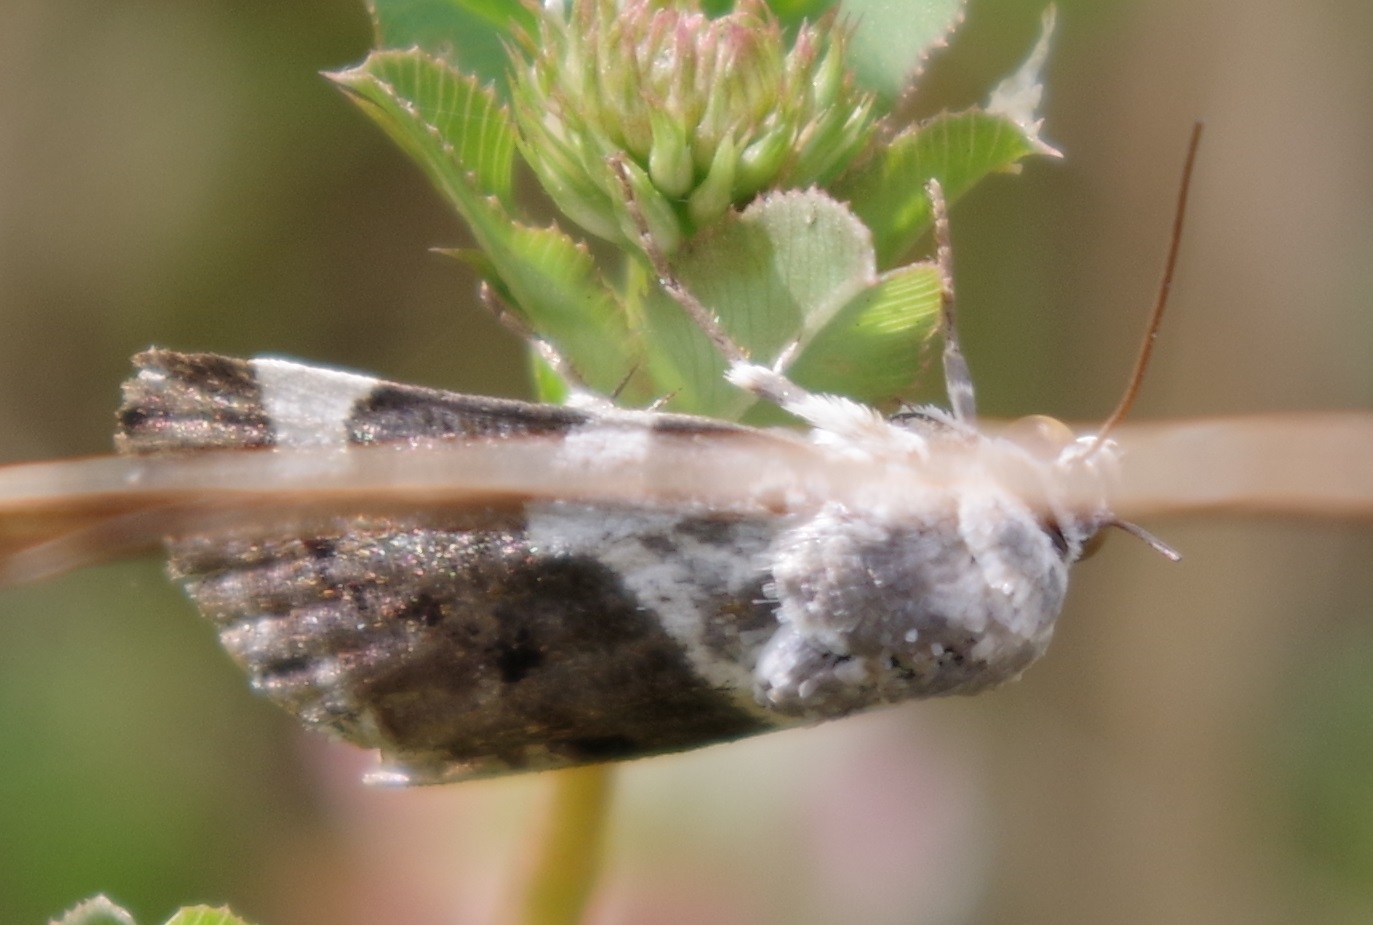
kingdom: Animalia
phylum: Arthropoda
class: Insecta
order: Lepidoptera
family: Noctuidae
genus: Acontia
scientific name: Acontia lucida
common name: Pale shoulder
